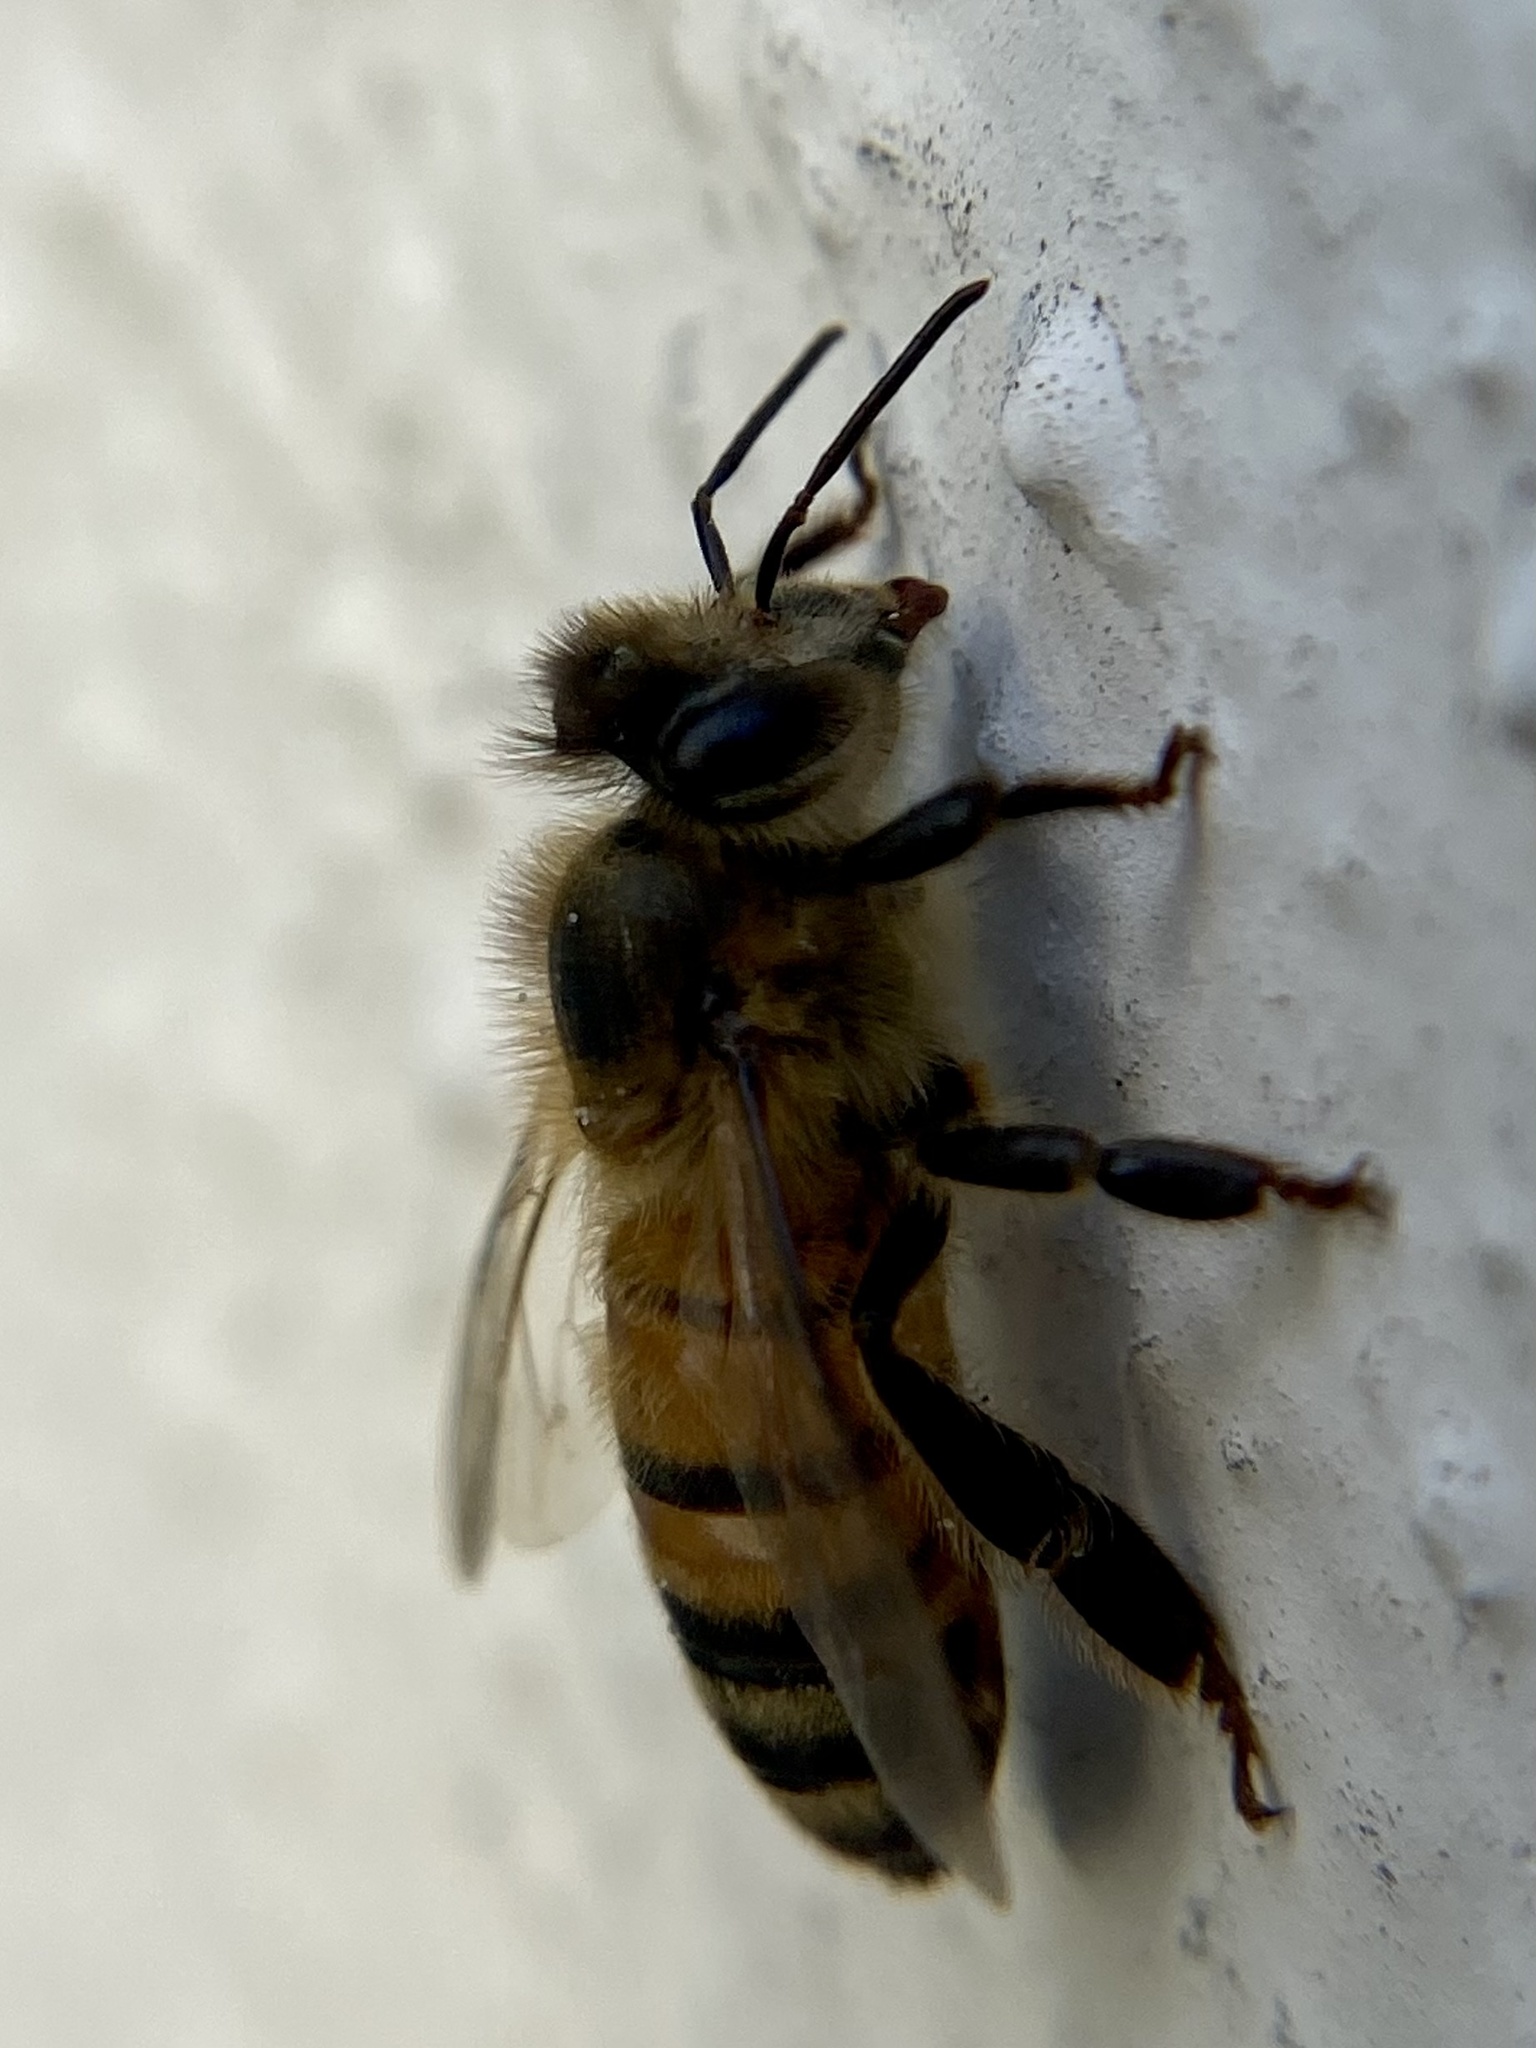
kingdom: Animalia
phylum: Arthropoda
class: Insecta
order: Hymenoptera
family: Apidae
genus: Apis
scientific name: Apis mellifera
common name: Honey bee
